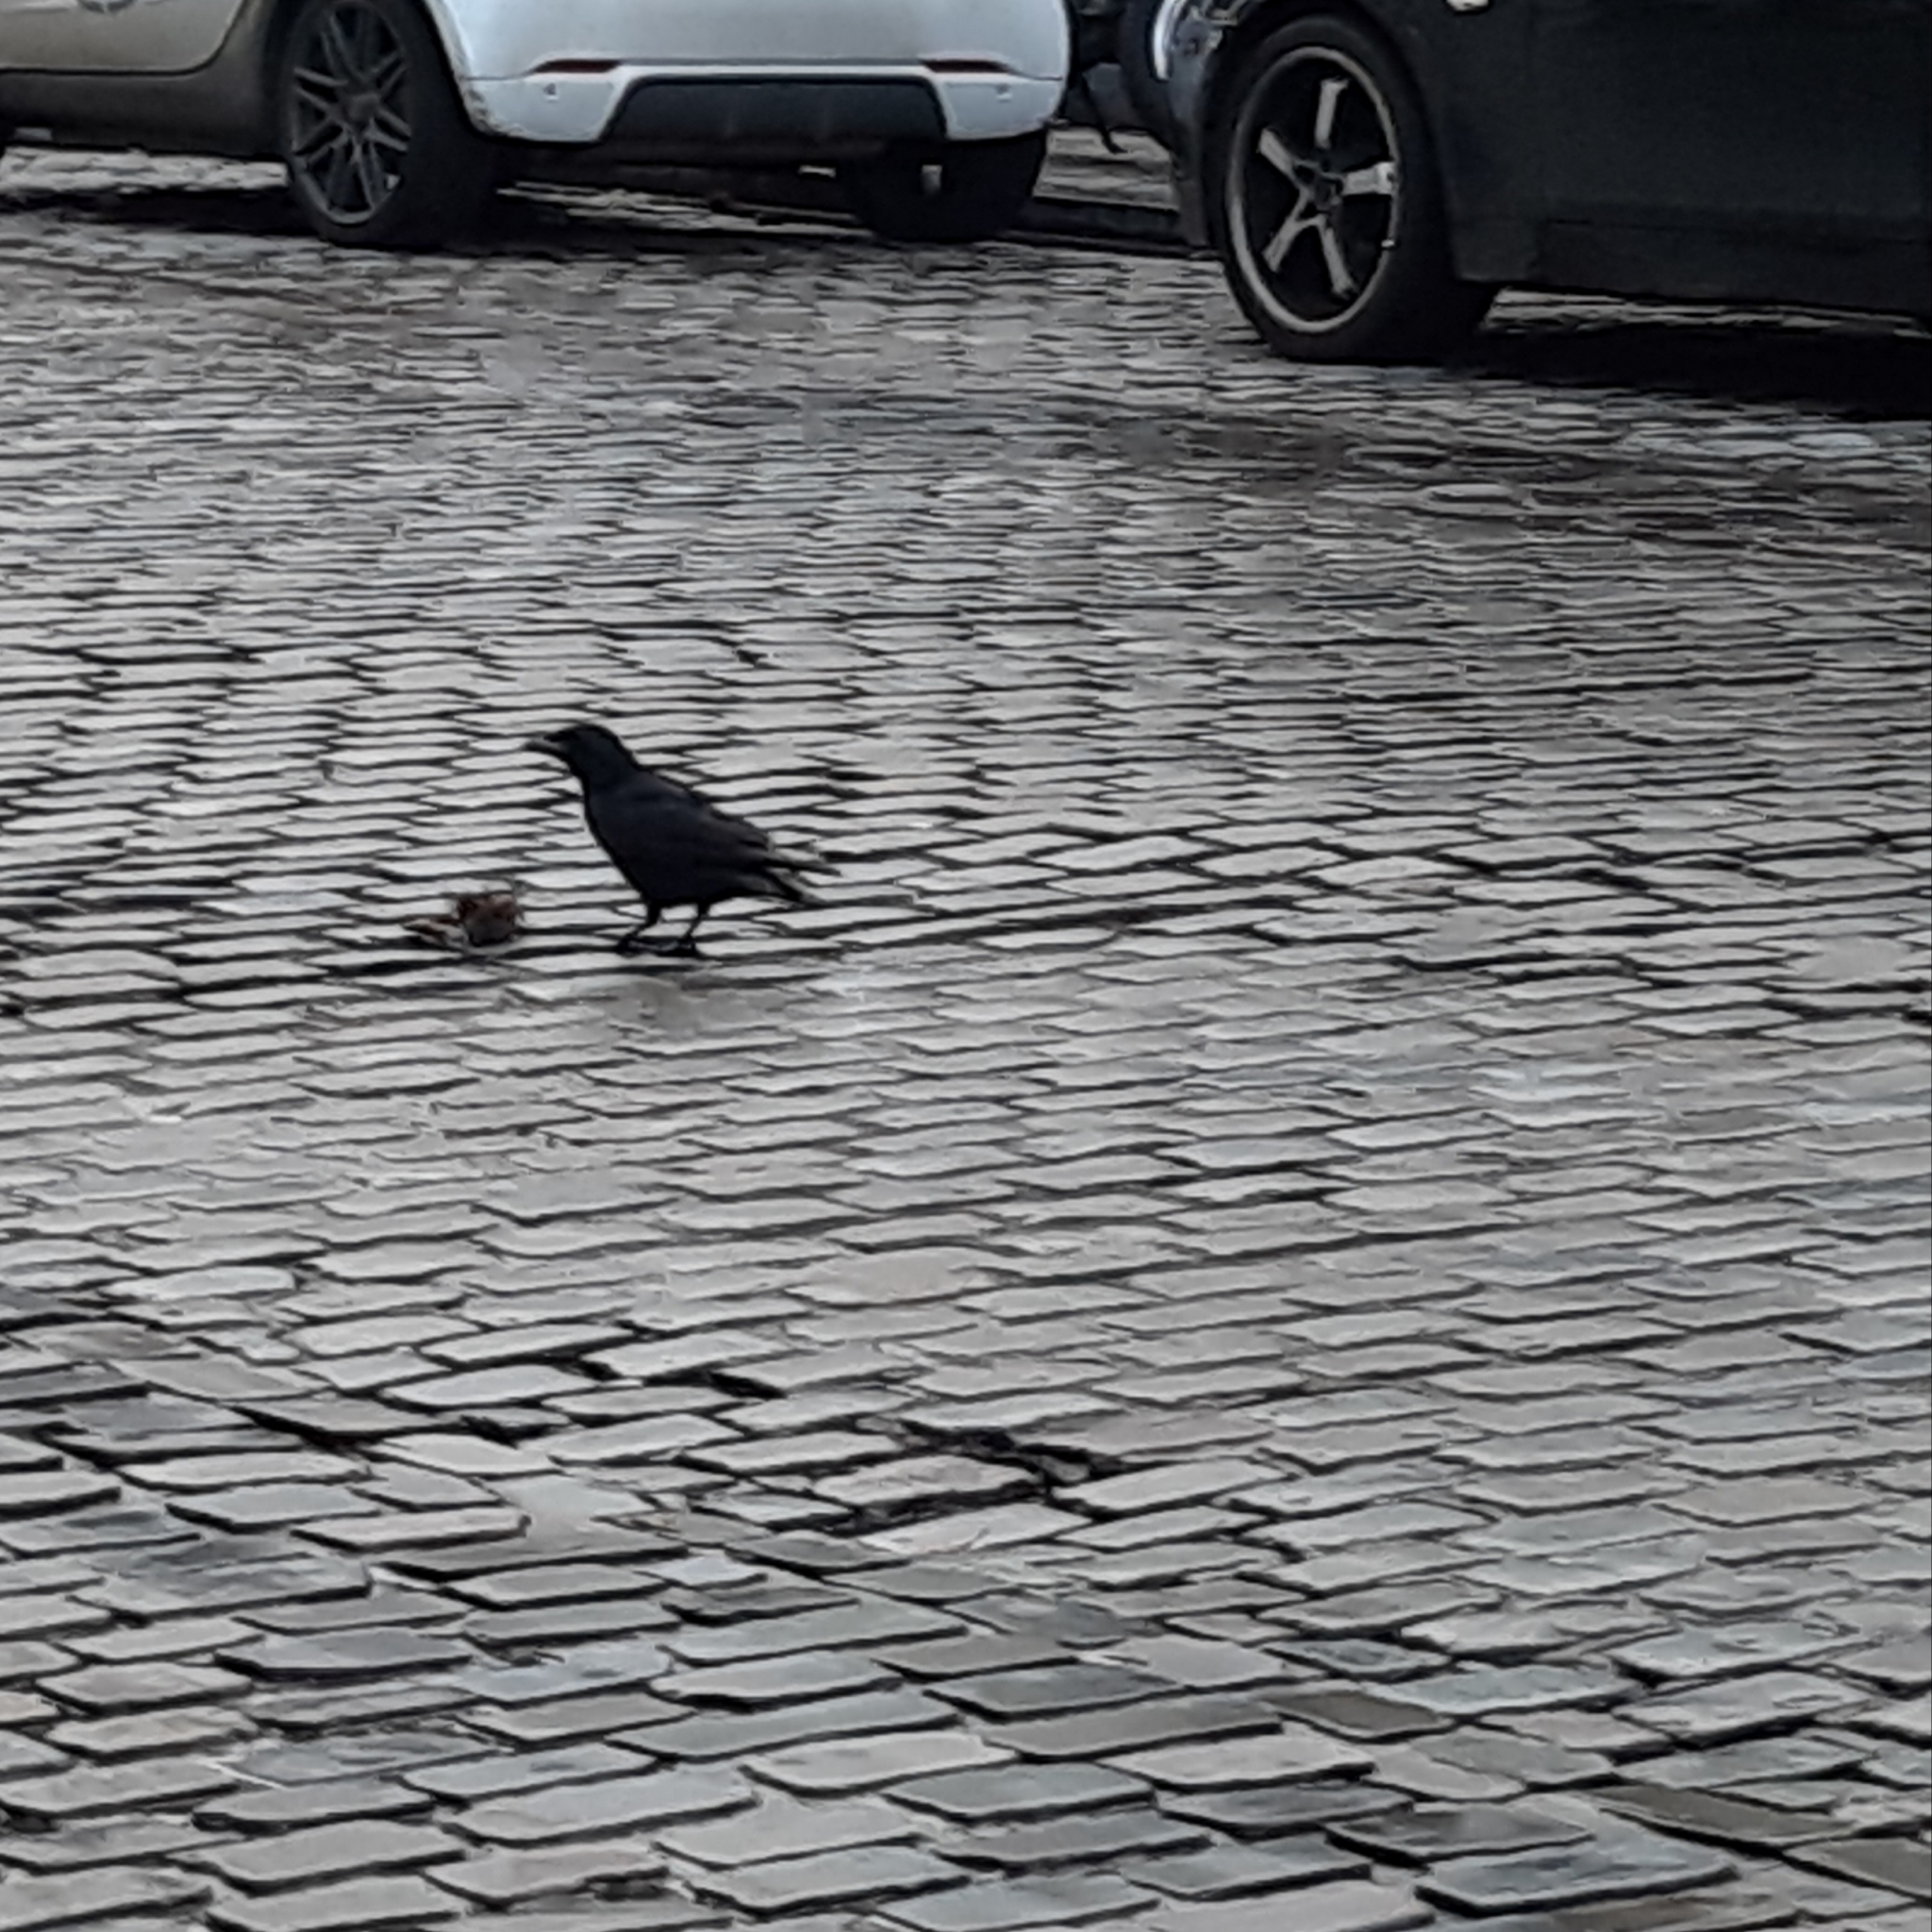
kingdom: Animalia
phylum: Chordata
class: Aves
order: Passeriformes
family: Corvidae
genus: Corvus
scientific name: Corvus corone
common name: Carrion crow
